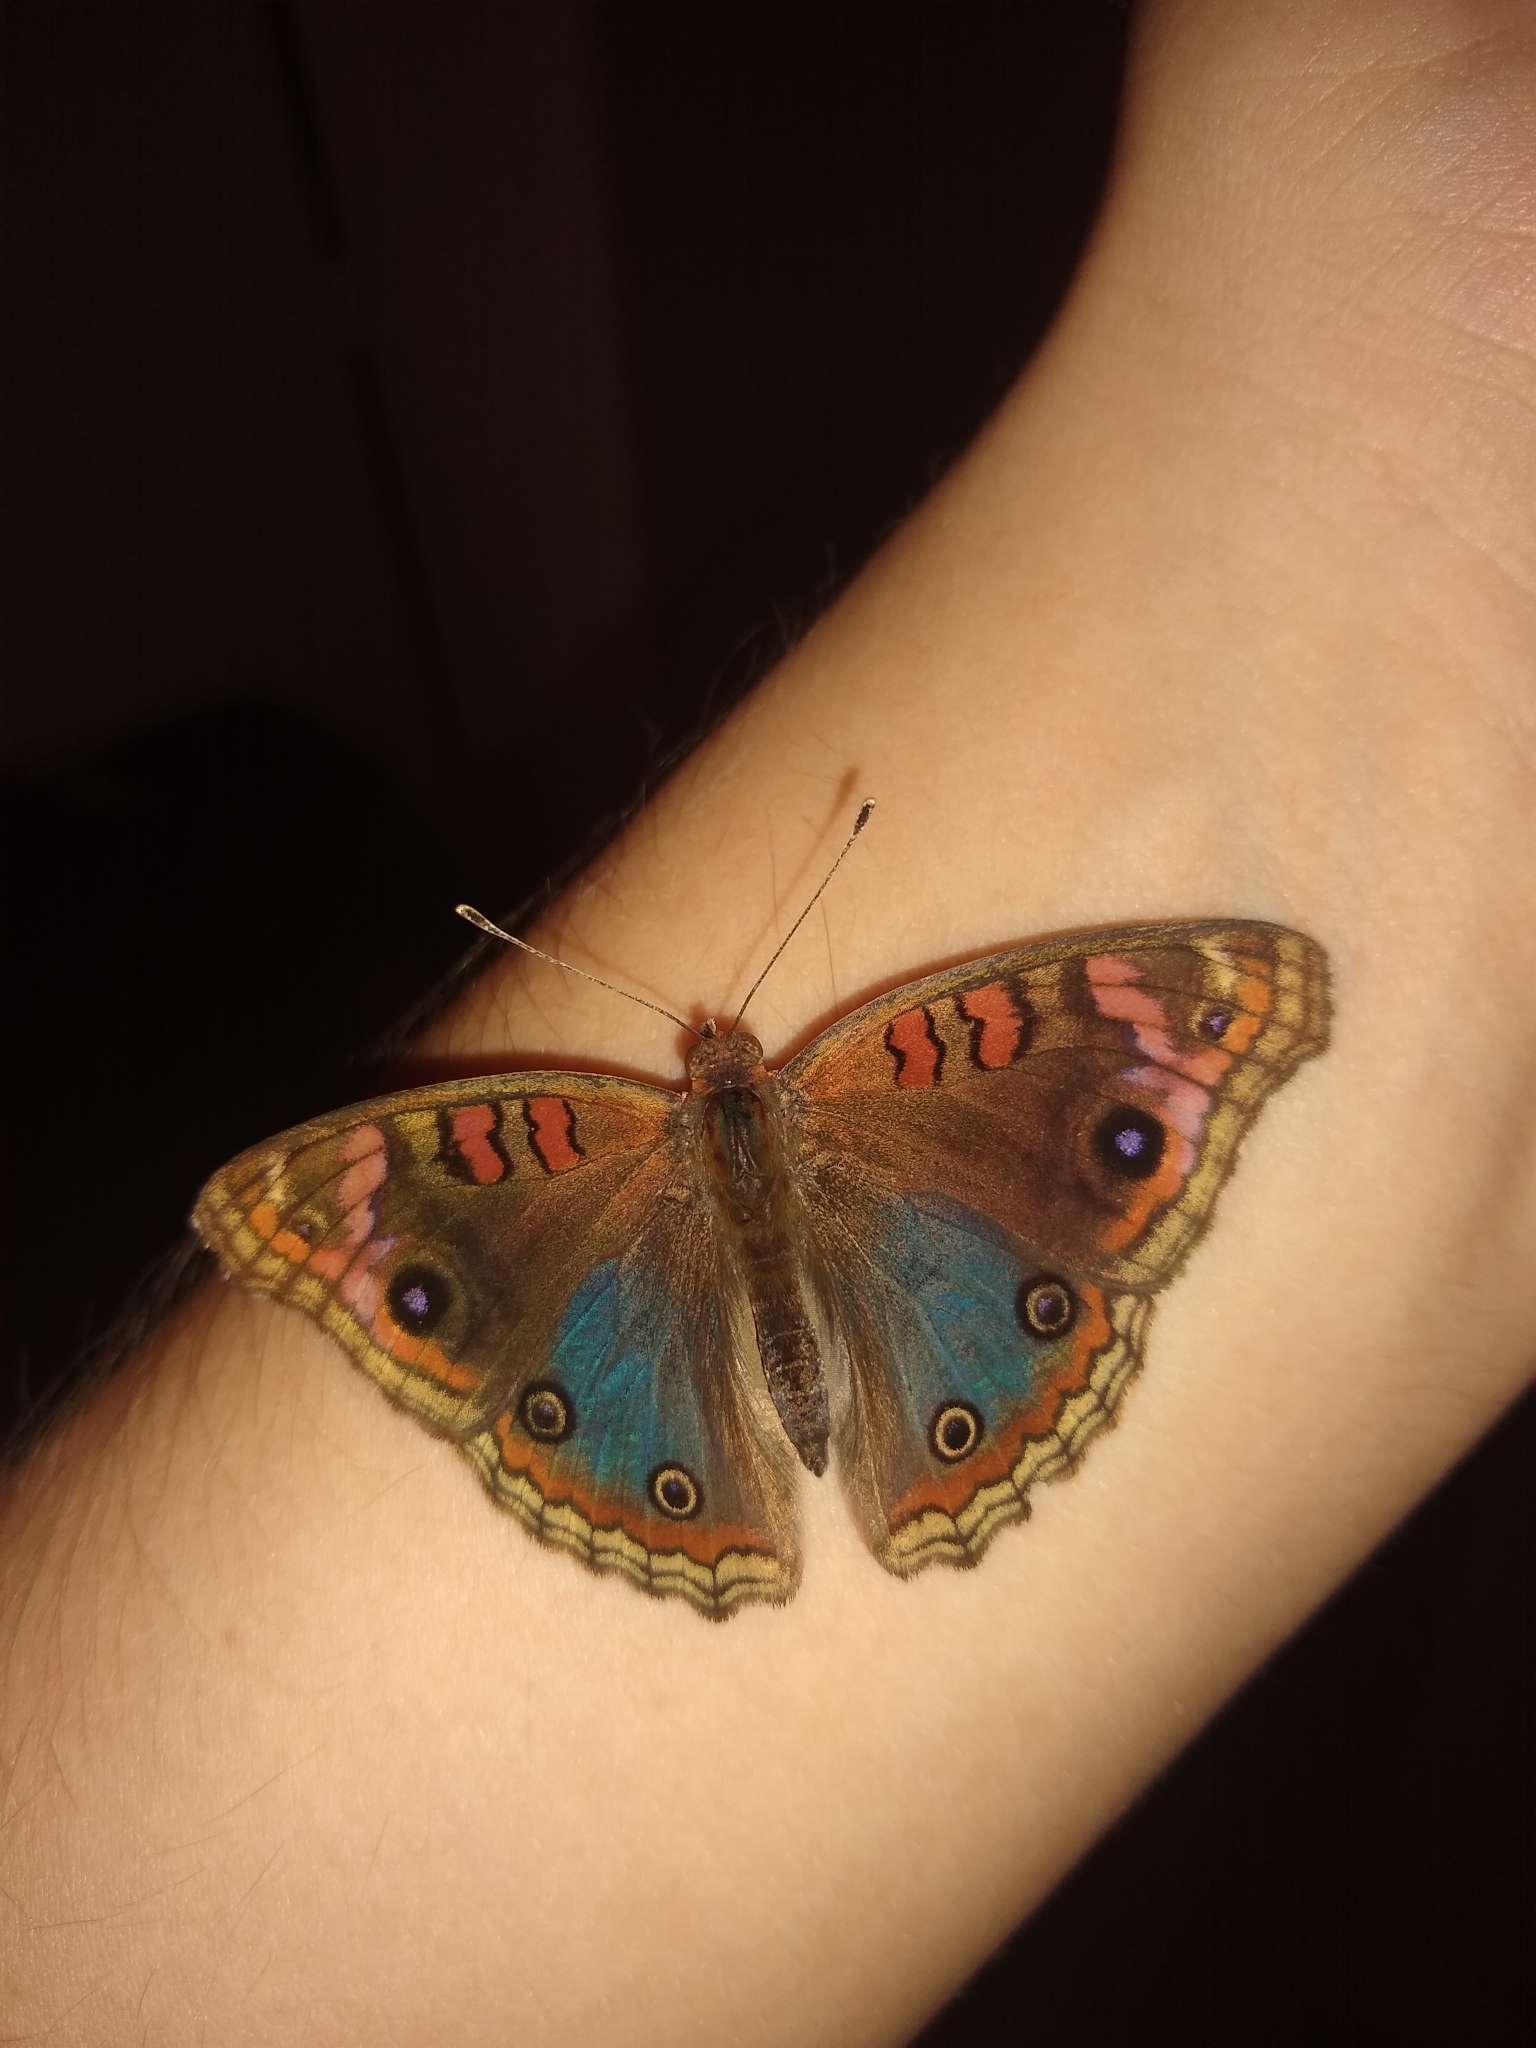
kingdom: Animalia
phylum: Arthropoda
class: Insecta
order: Lepidoptera
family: Nymphalidae
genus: Junonia
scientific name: Junonia lavinia
